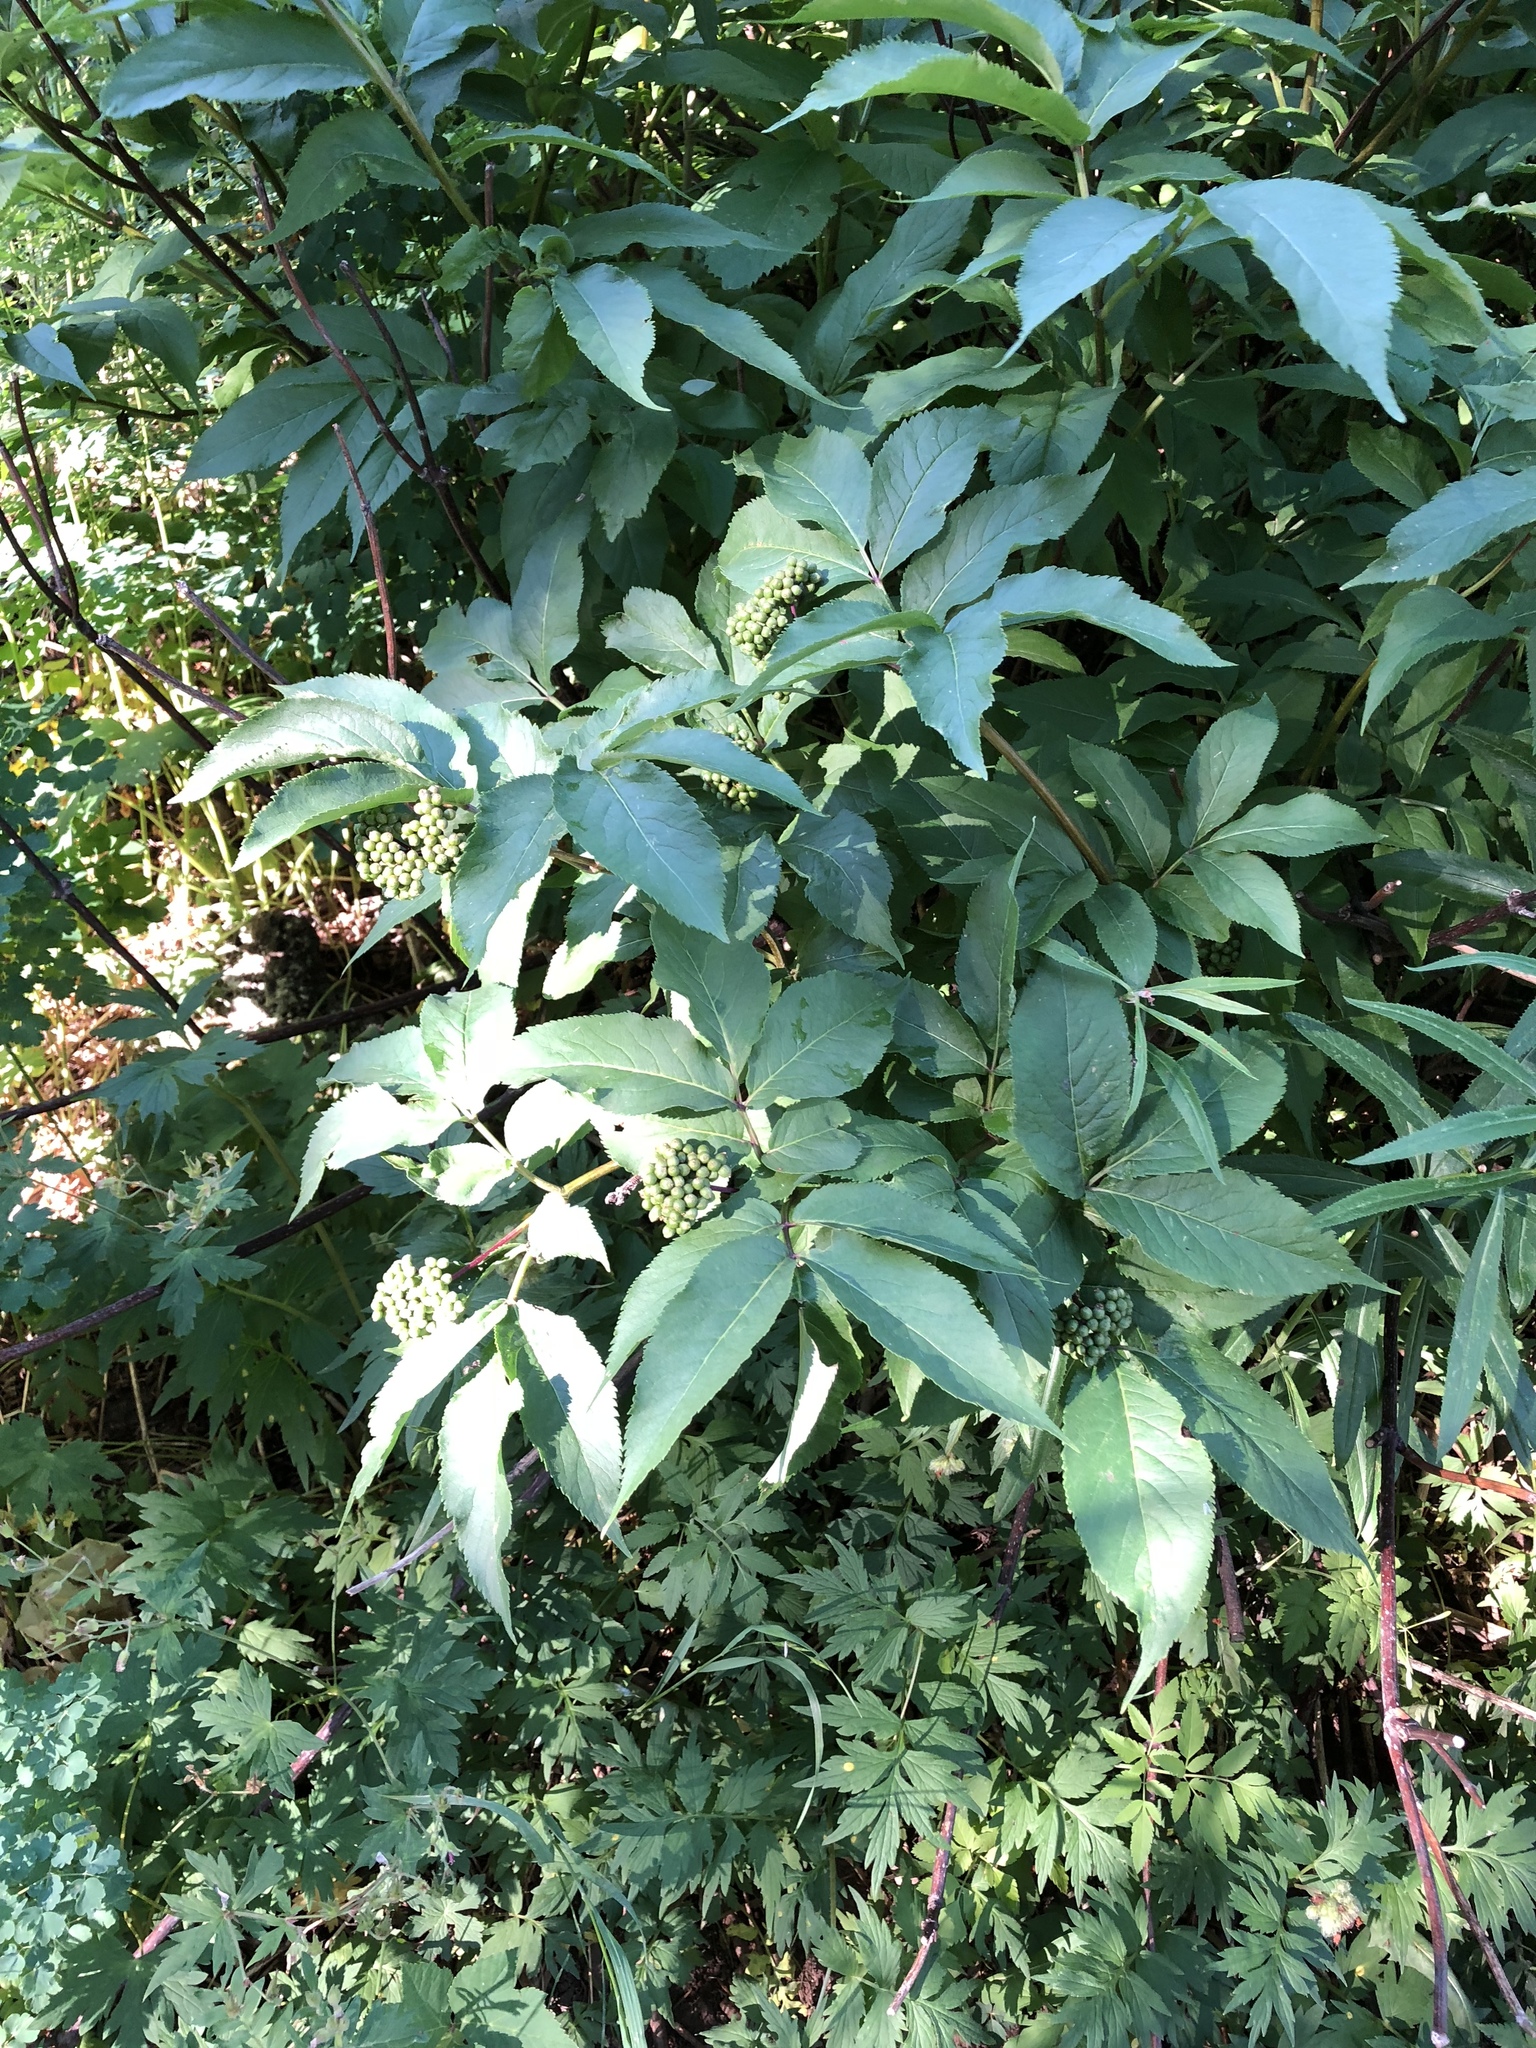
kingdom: Plantae
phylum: Tracheophyta
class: Magnoliopsida
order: Dipsacales
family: Viburnaceae
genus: Sambucus
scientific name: Sambucus racemosa
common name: Red-berried elder
